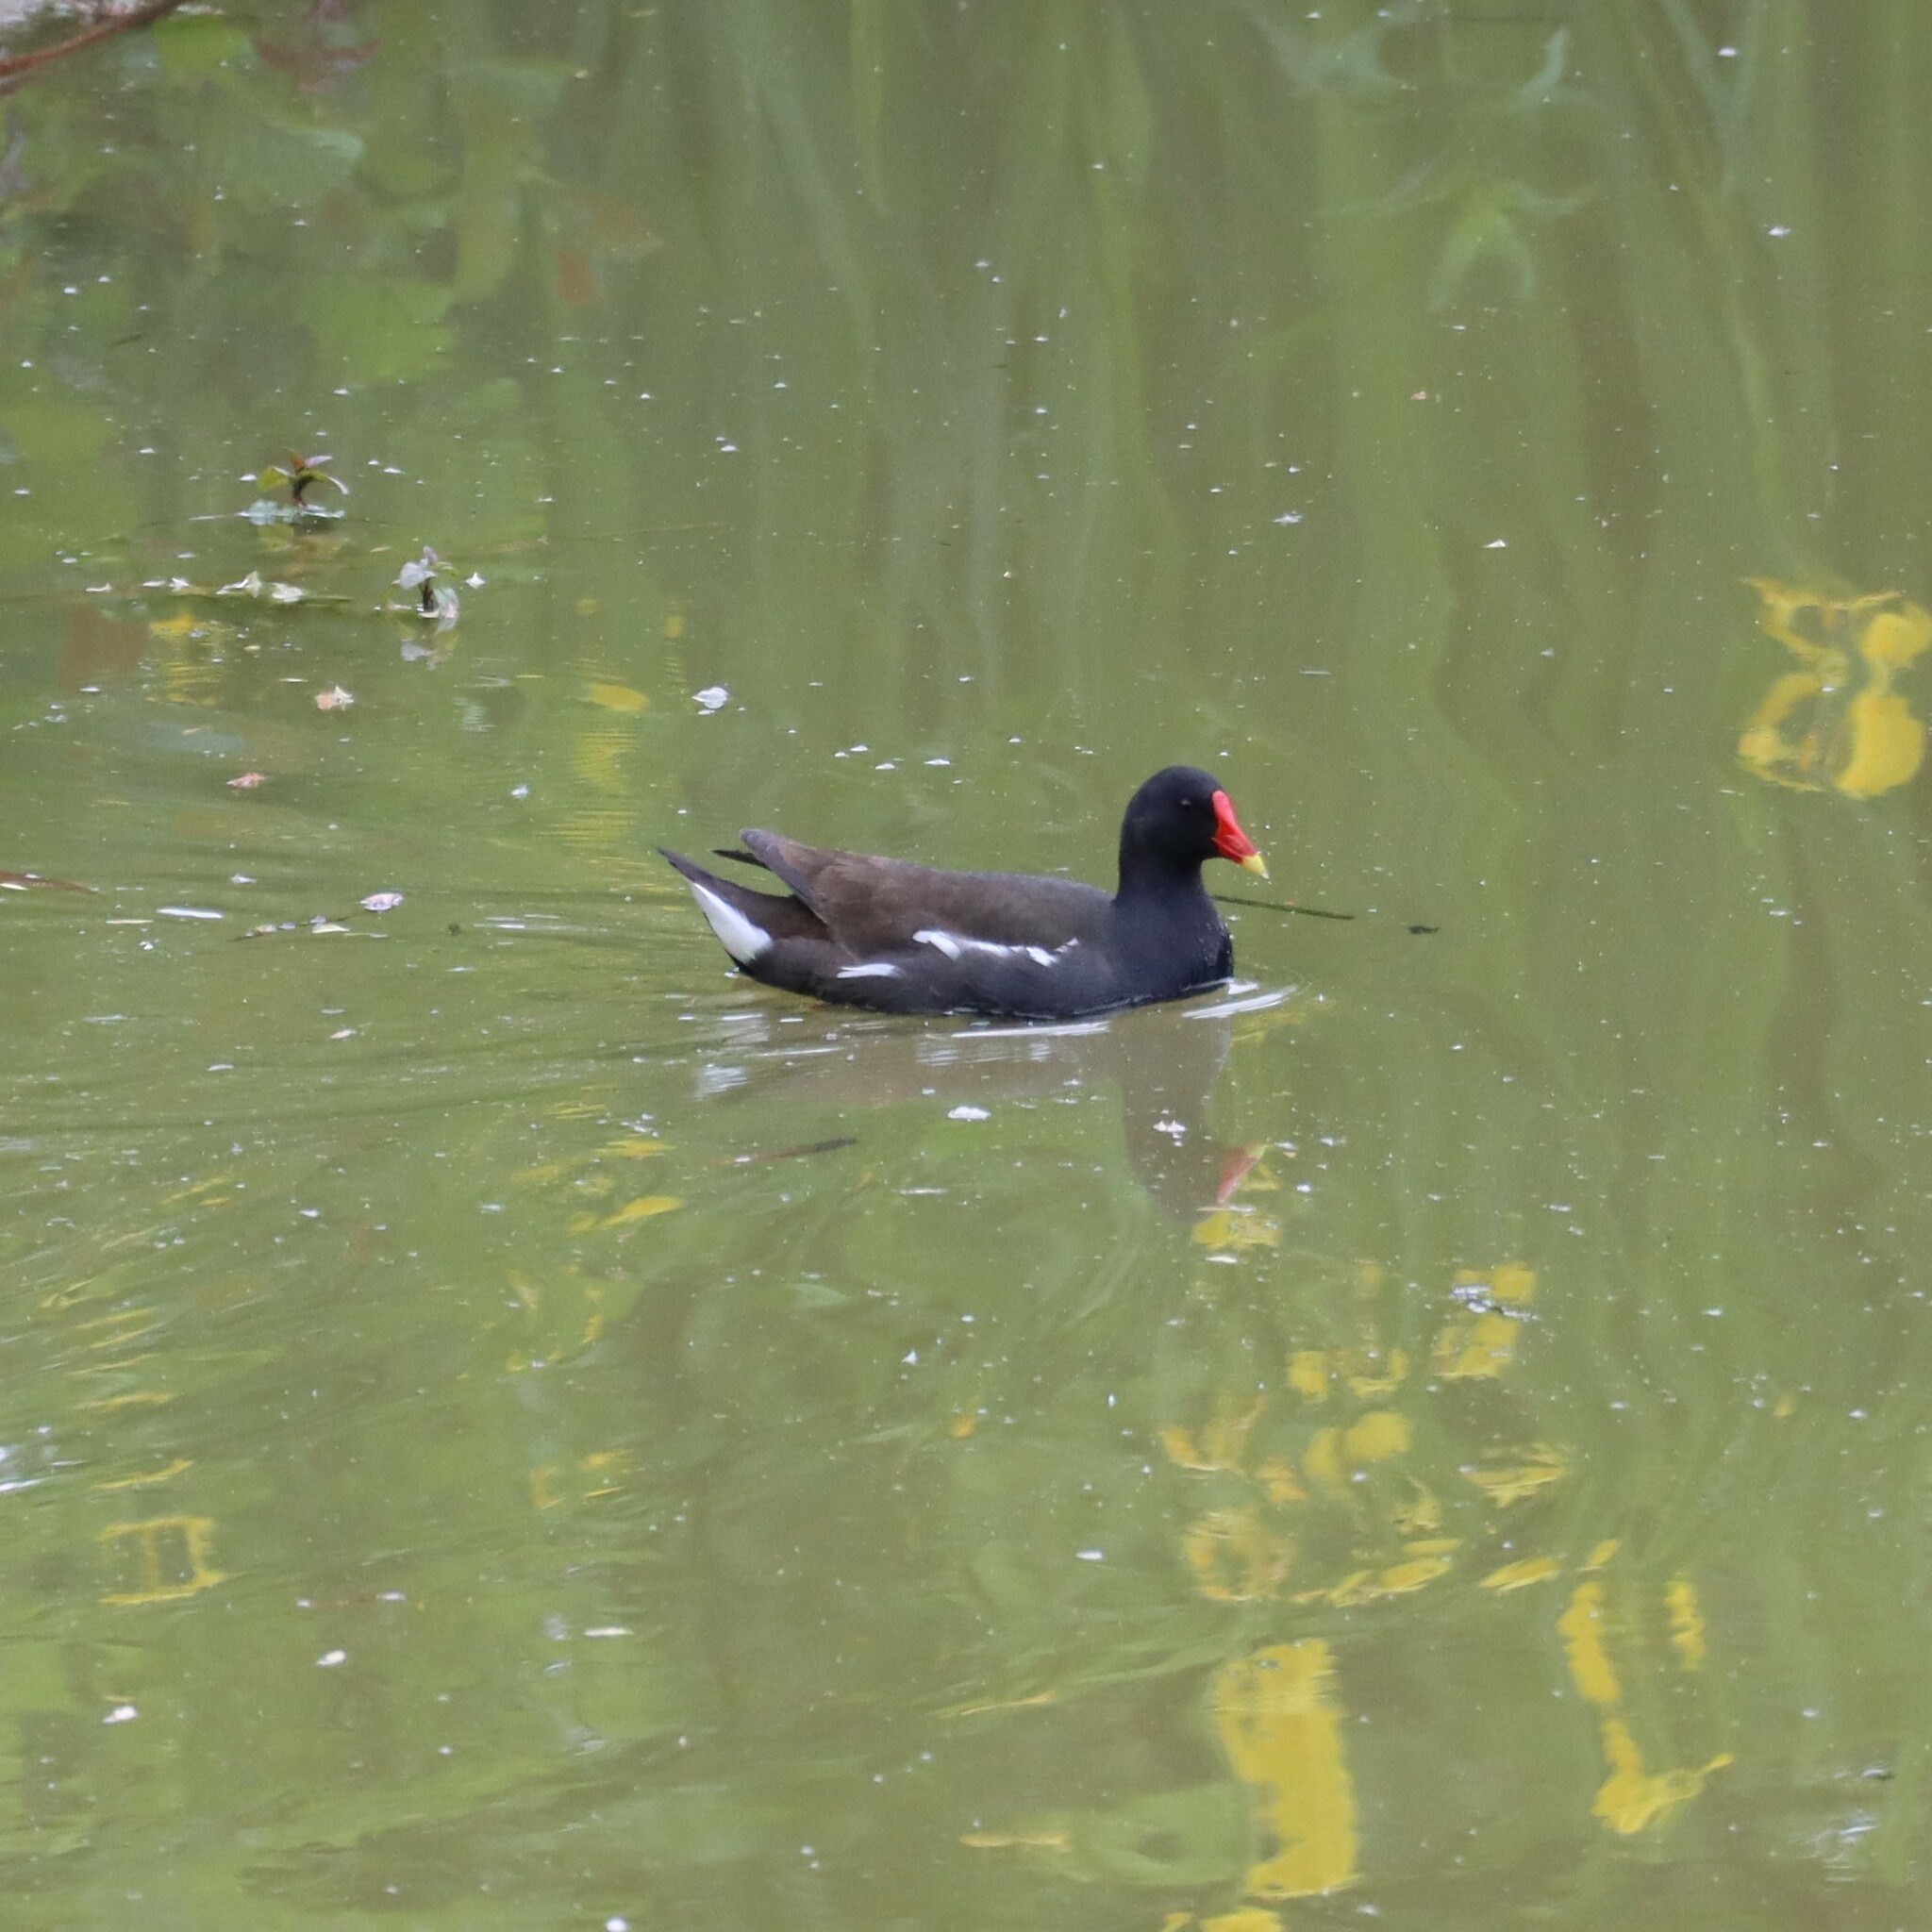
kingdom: Animalia
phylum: Chordata
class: Aves
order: Gruiformes
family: Rallidae
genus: Gallinula
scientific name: Gallinula chloropus
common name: Common moorhen
